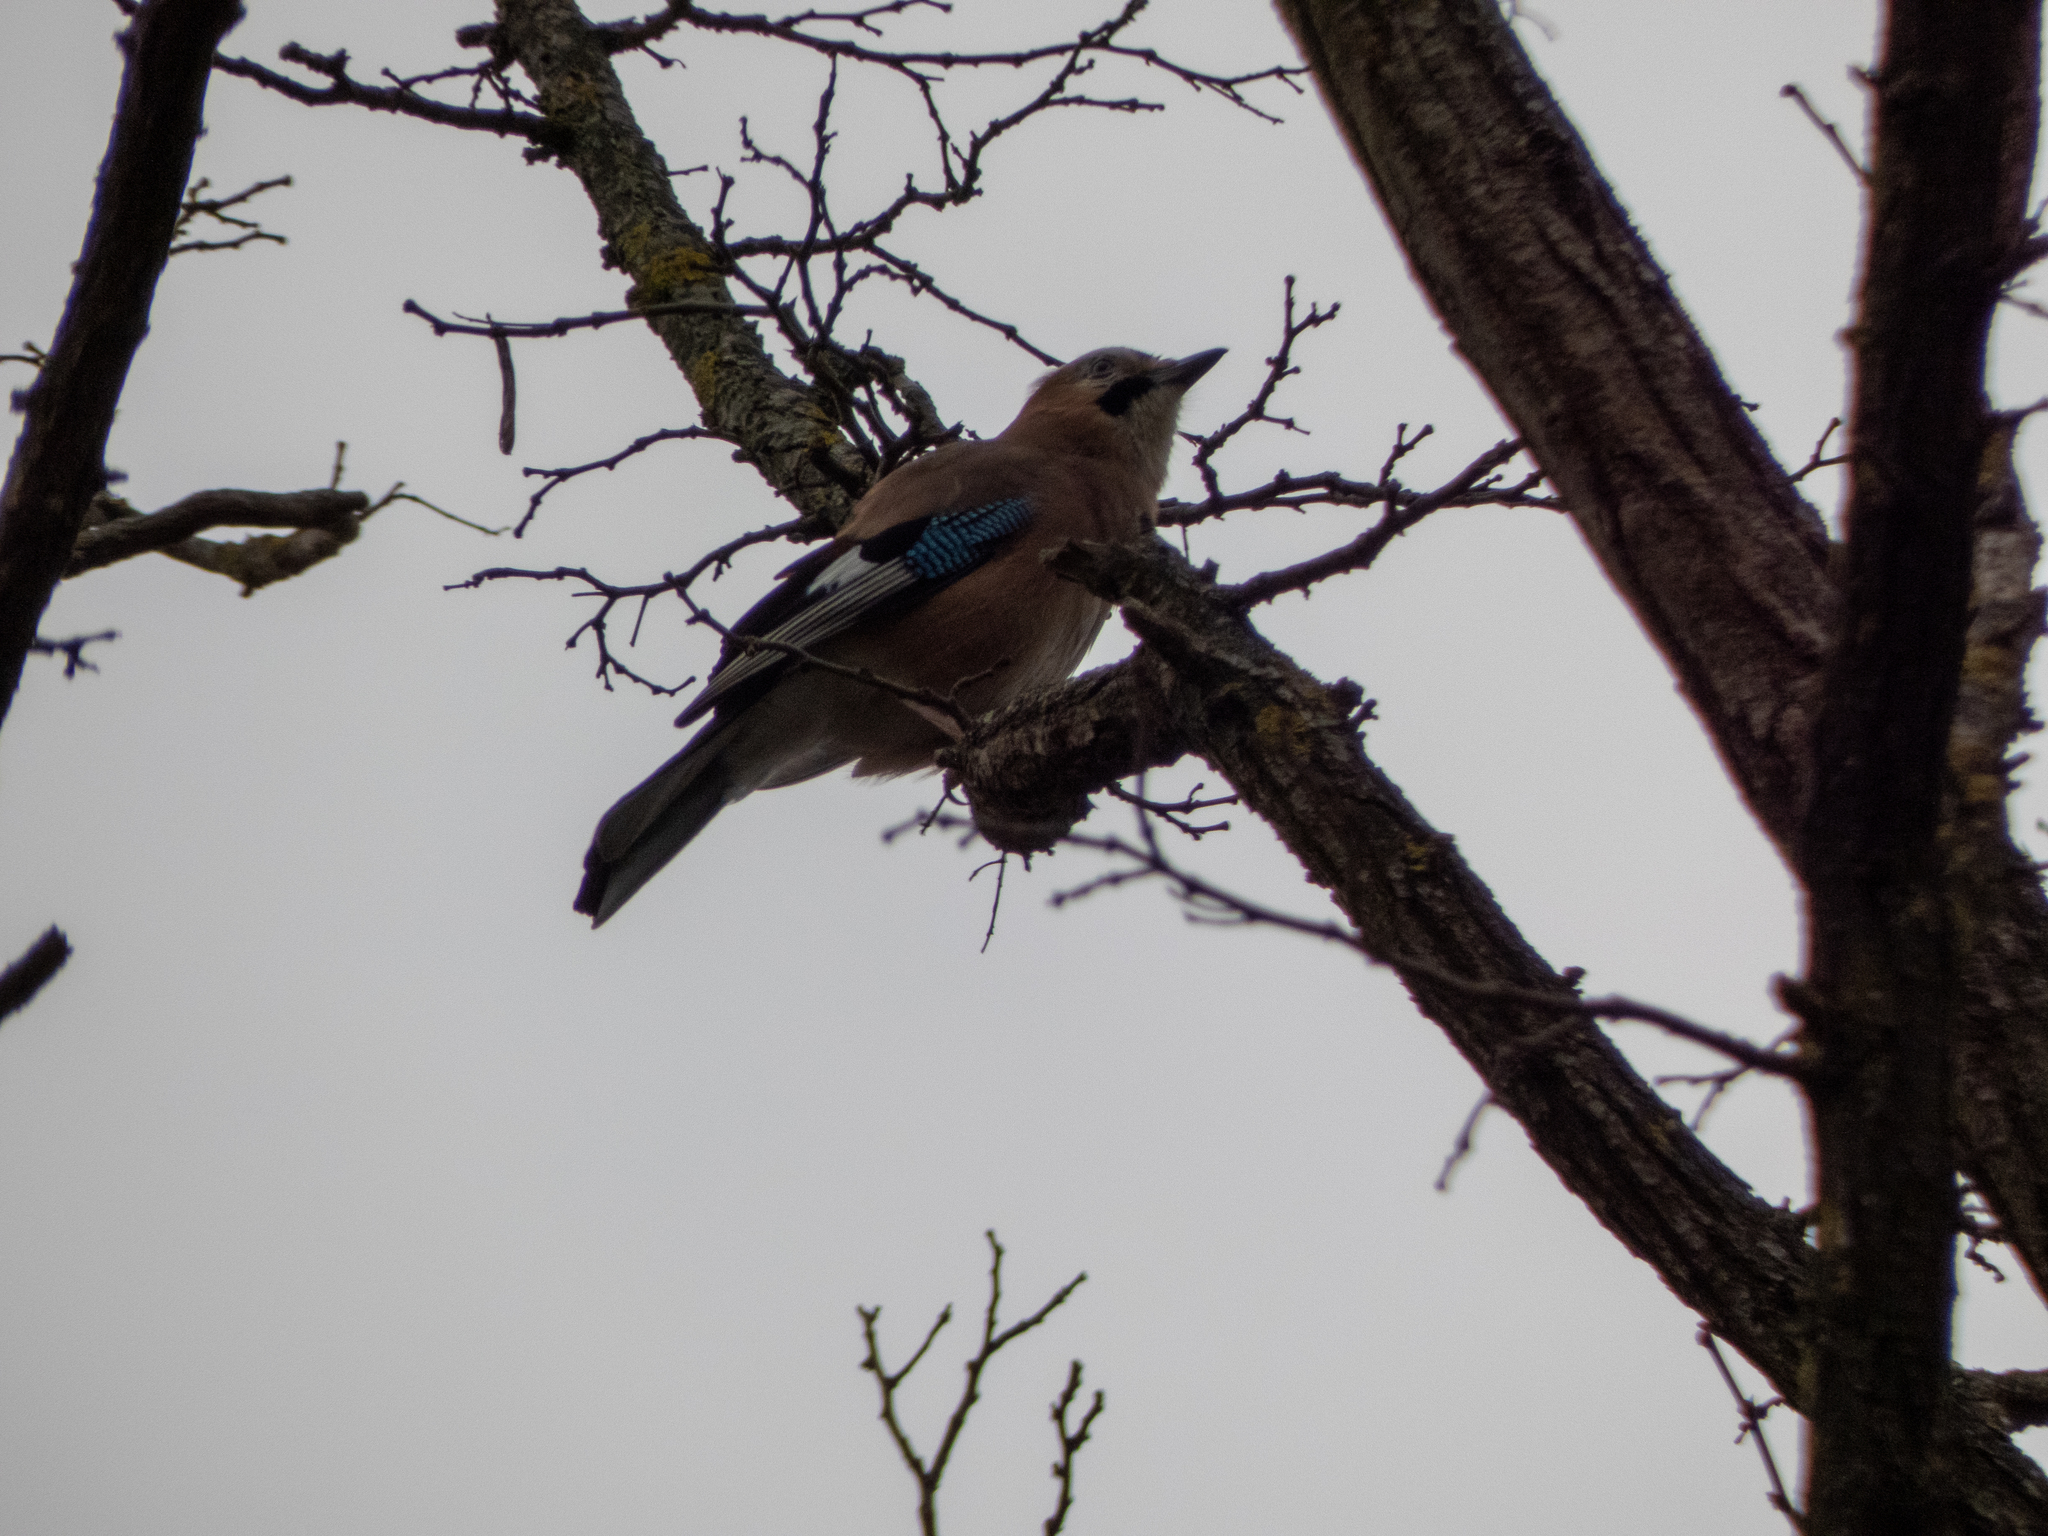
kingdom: Animalia
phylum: Chordata
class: Aves
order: Passeriformes
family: Corvidae
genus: Garrulus
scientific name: Garrulus glandarius
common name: Eurasian jay
